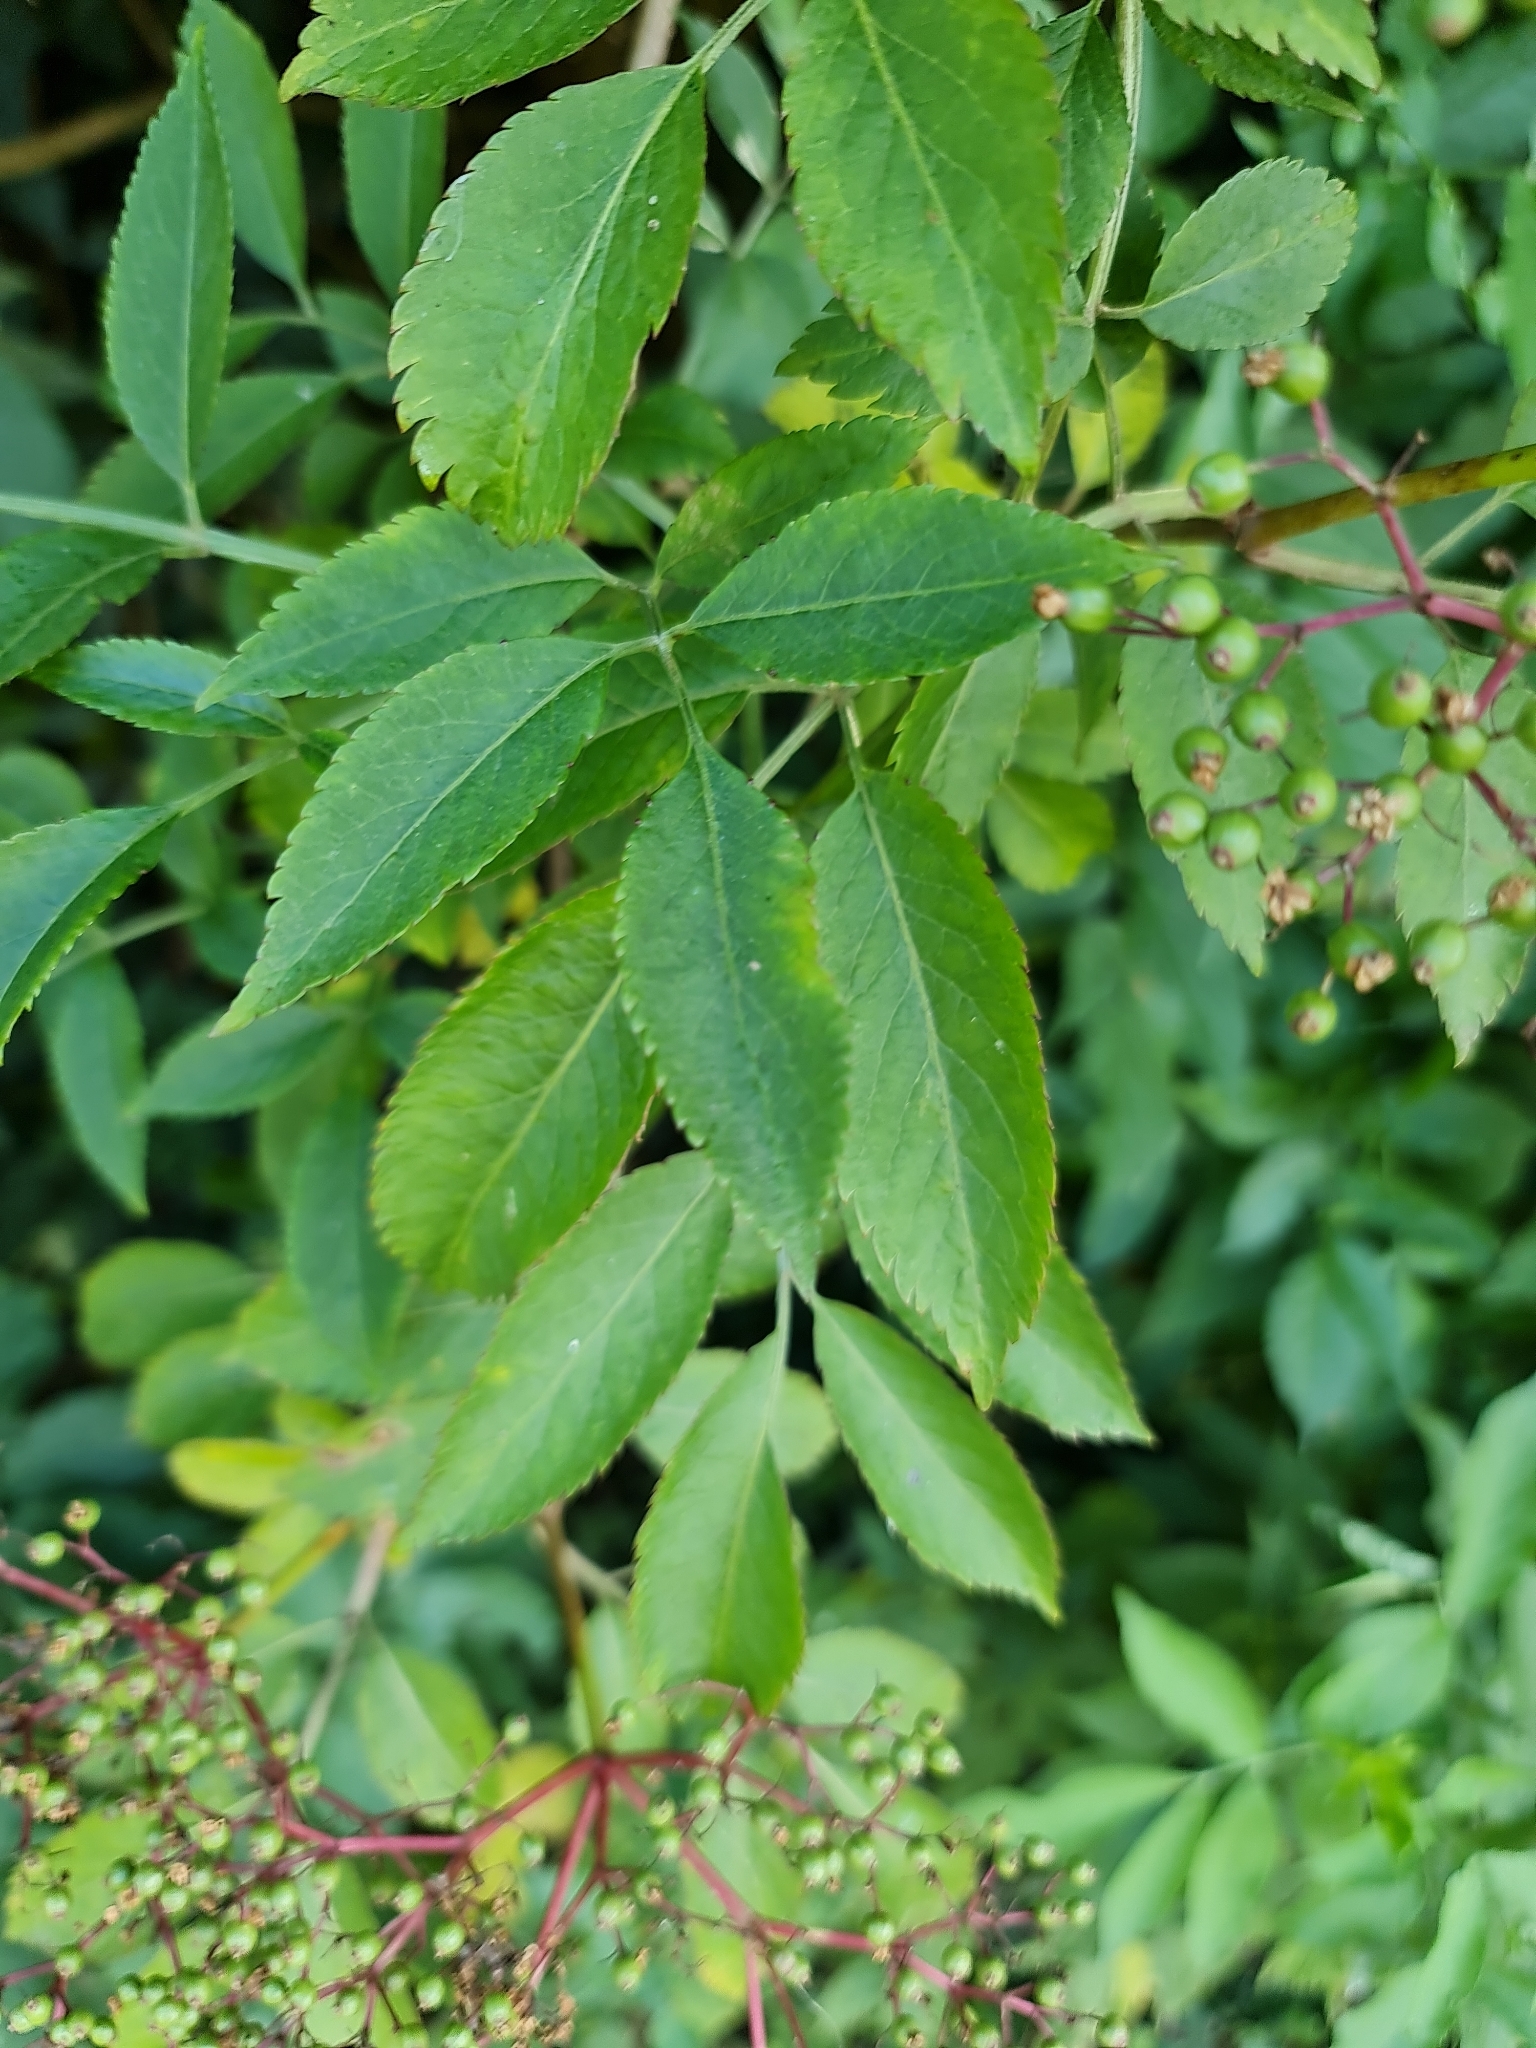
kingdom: Plantae
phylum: Tracheophyta
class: Magnoliopsida
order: Dipsacales
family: Viburnaceae
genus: Sambucus
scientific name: Sambucus nigra
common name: Elder
